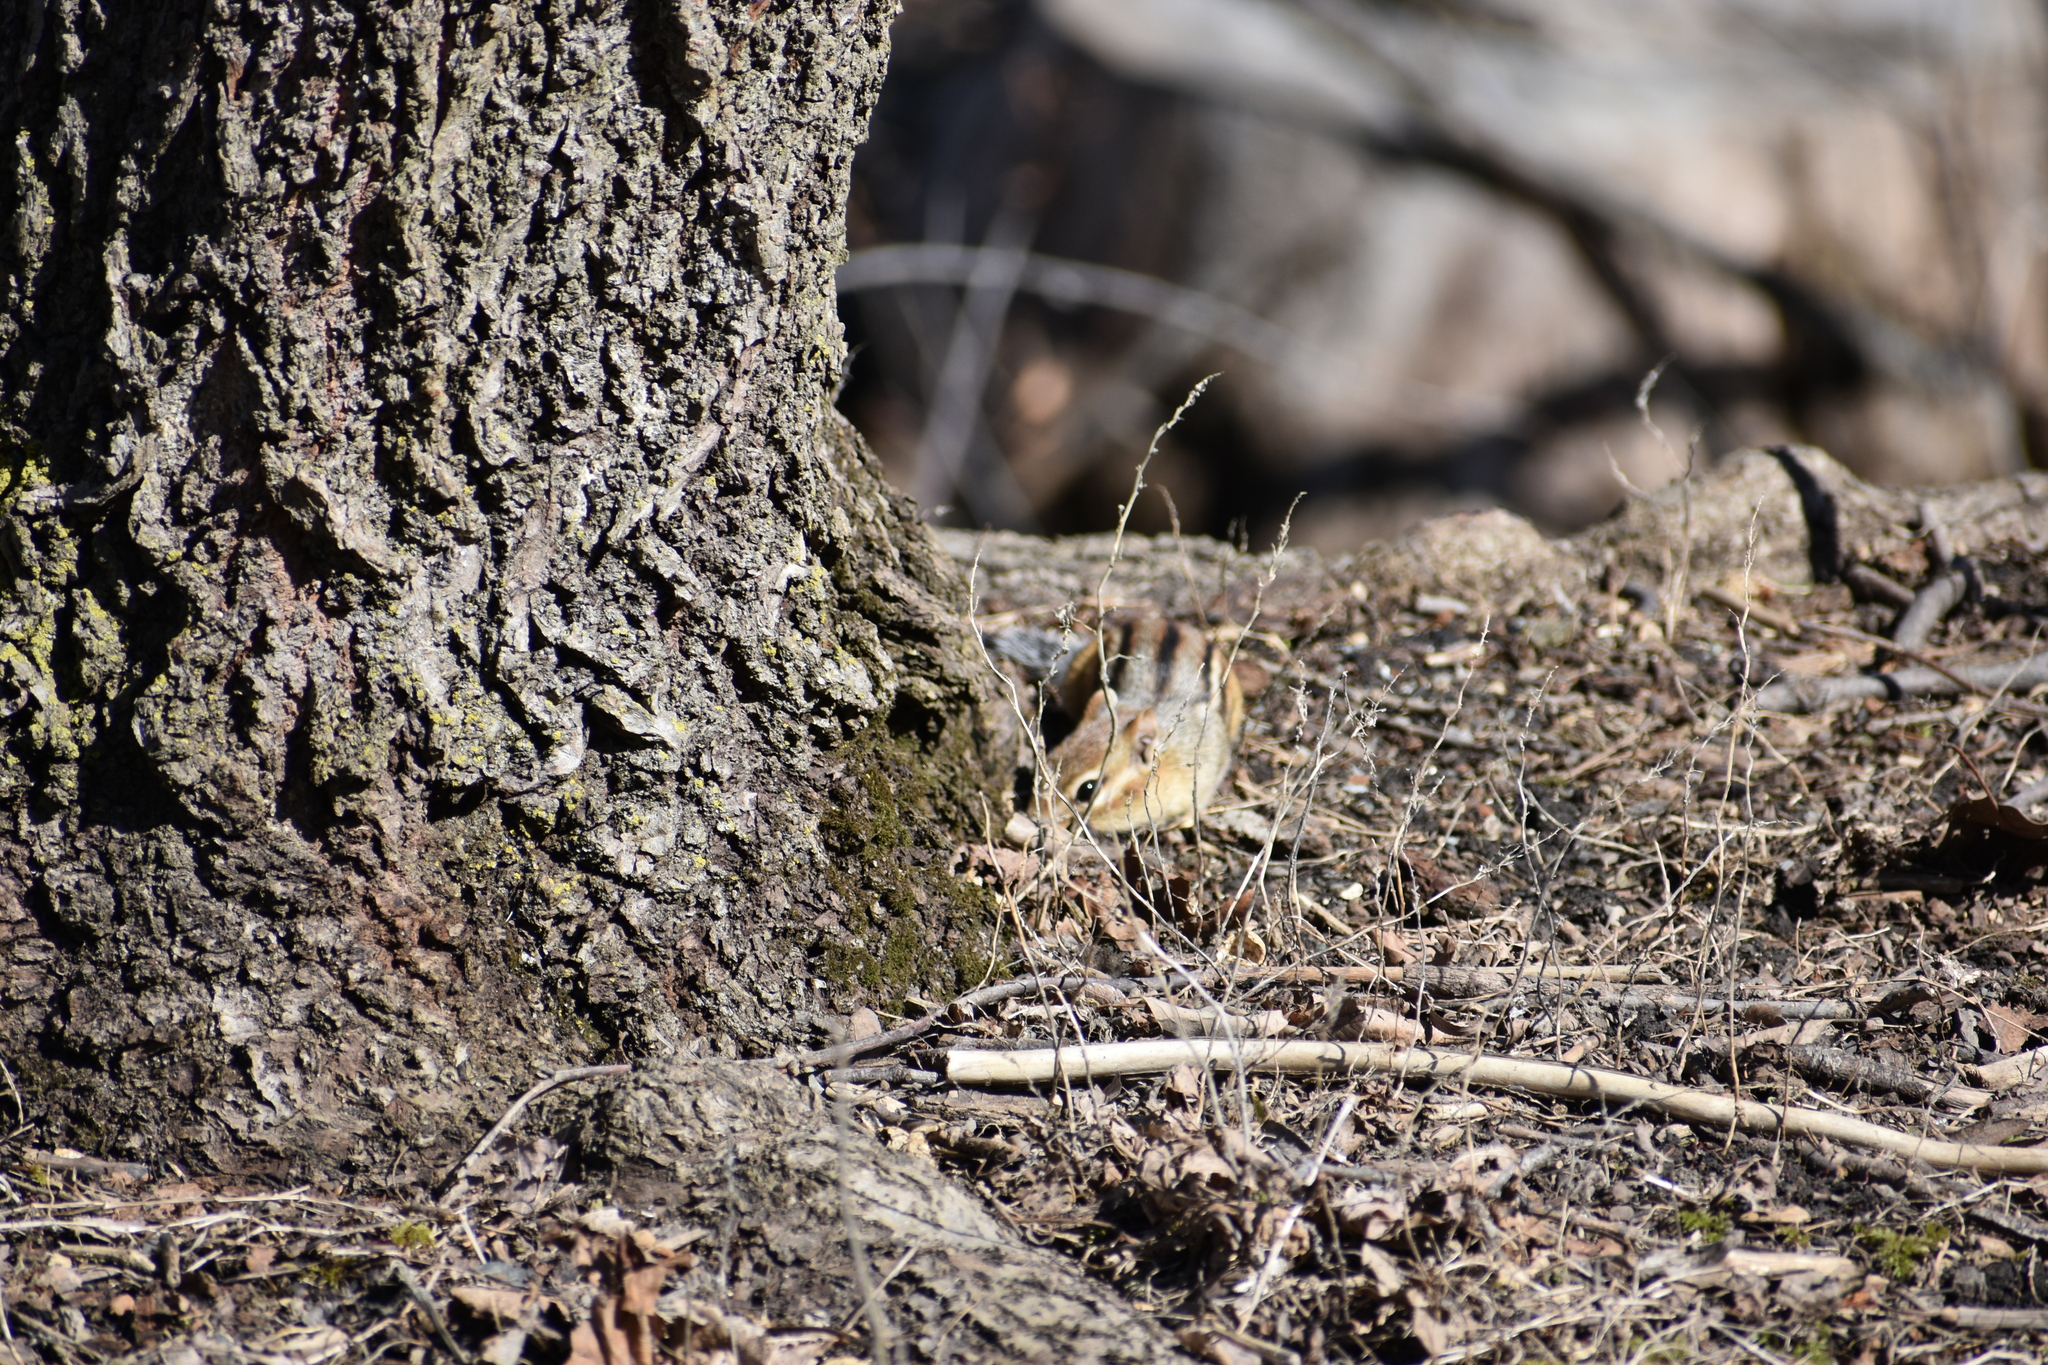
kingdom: Animalia
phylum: Chordata
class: Mammalia
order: Rodentia
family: Sciuridae
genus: Tamias
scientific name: Tamias striatus
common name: Eastern chipmunk
